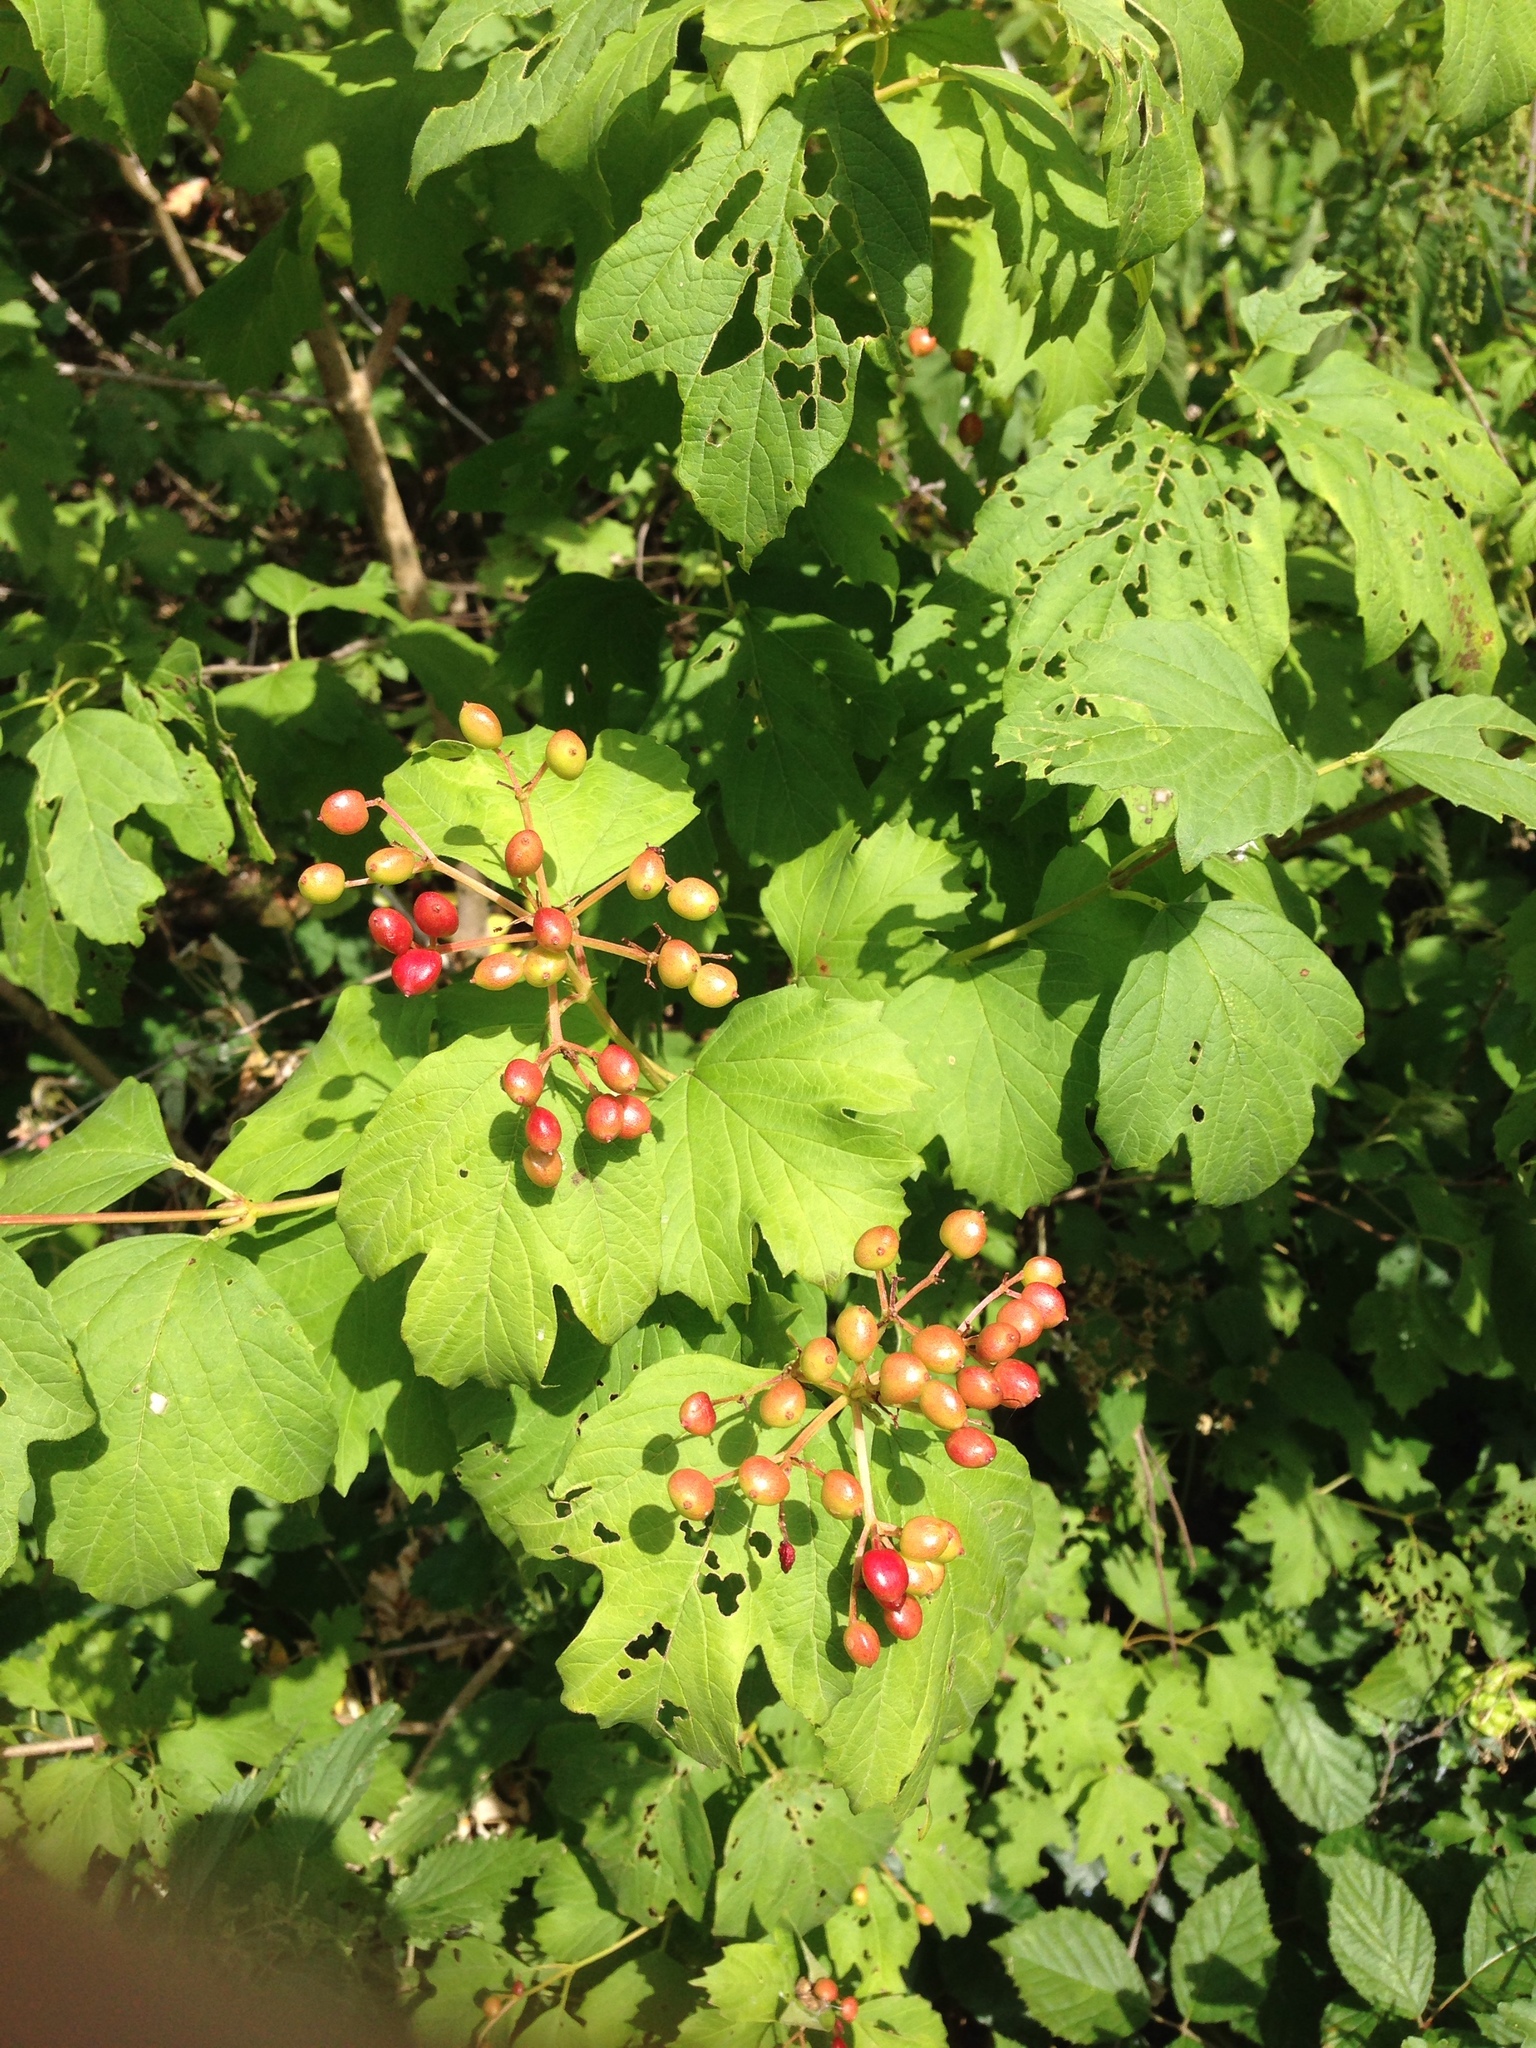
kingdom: Plantae
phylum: Tracheophyta
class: Magnoliopsida
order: Dipsacales
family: Viburnaceae
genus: Viburnum
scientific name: Viburnum opulus
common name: Guelder-rose
